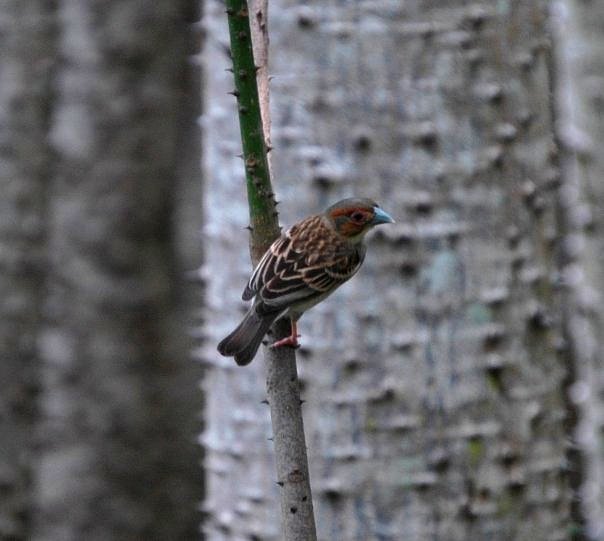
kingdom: Animalia
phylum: Chordata
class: Aves
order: Passeriformes
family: Ploceidae
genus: Ploceus
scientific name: Ploceus sakalava
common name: Sakalava weaver
